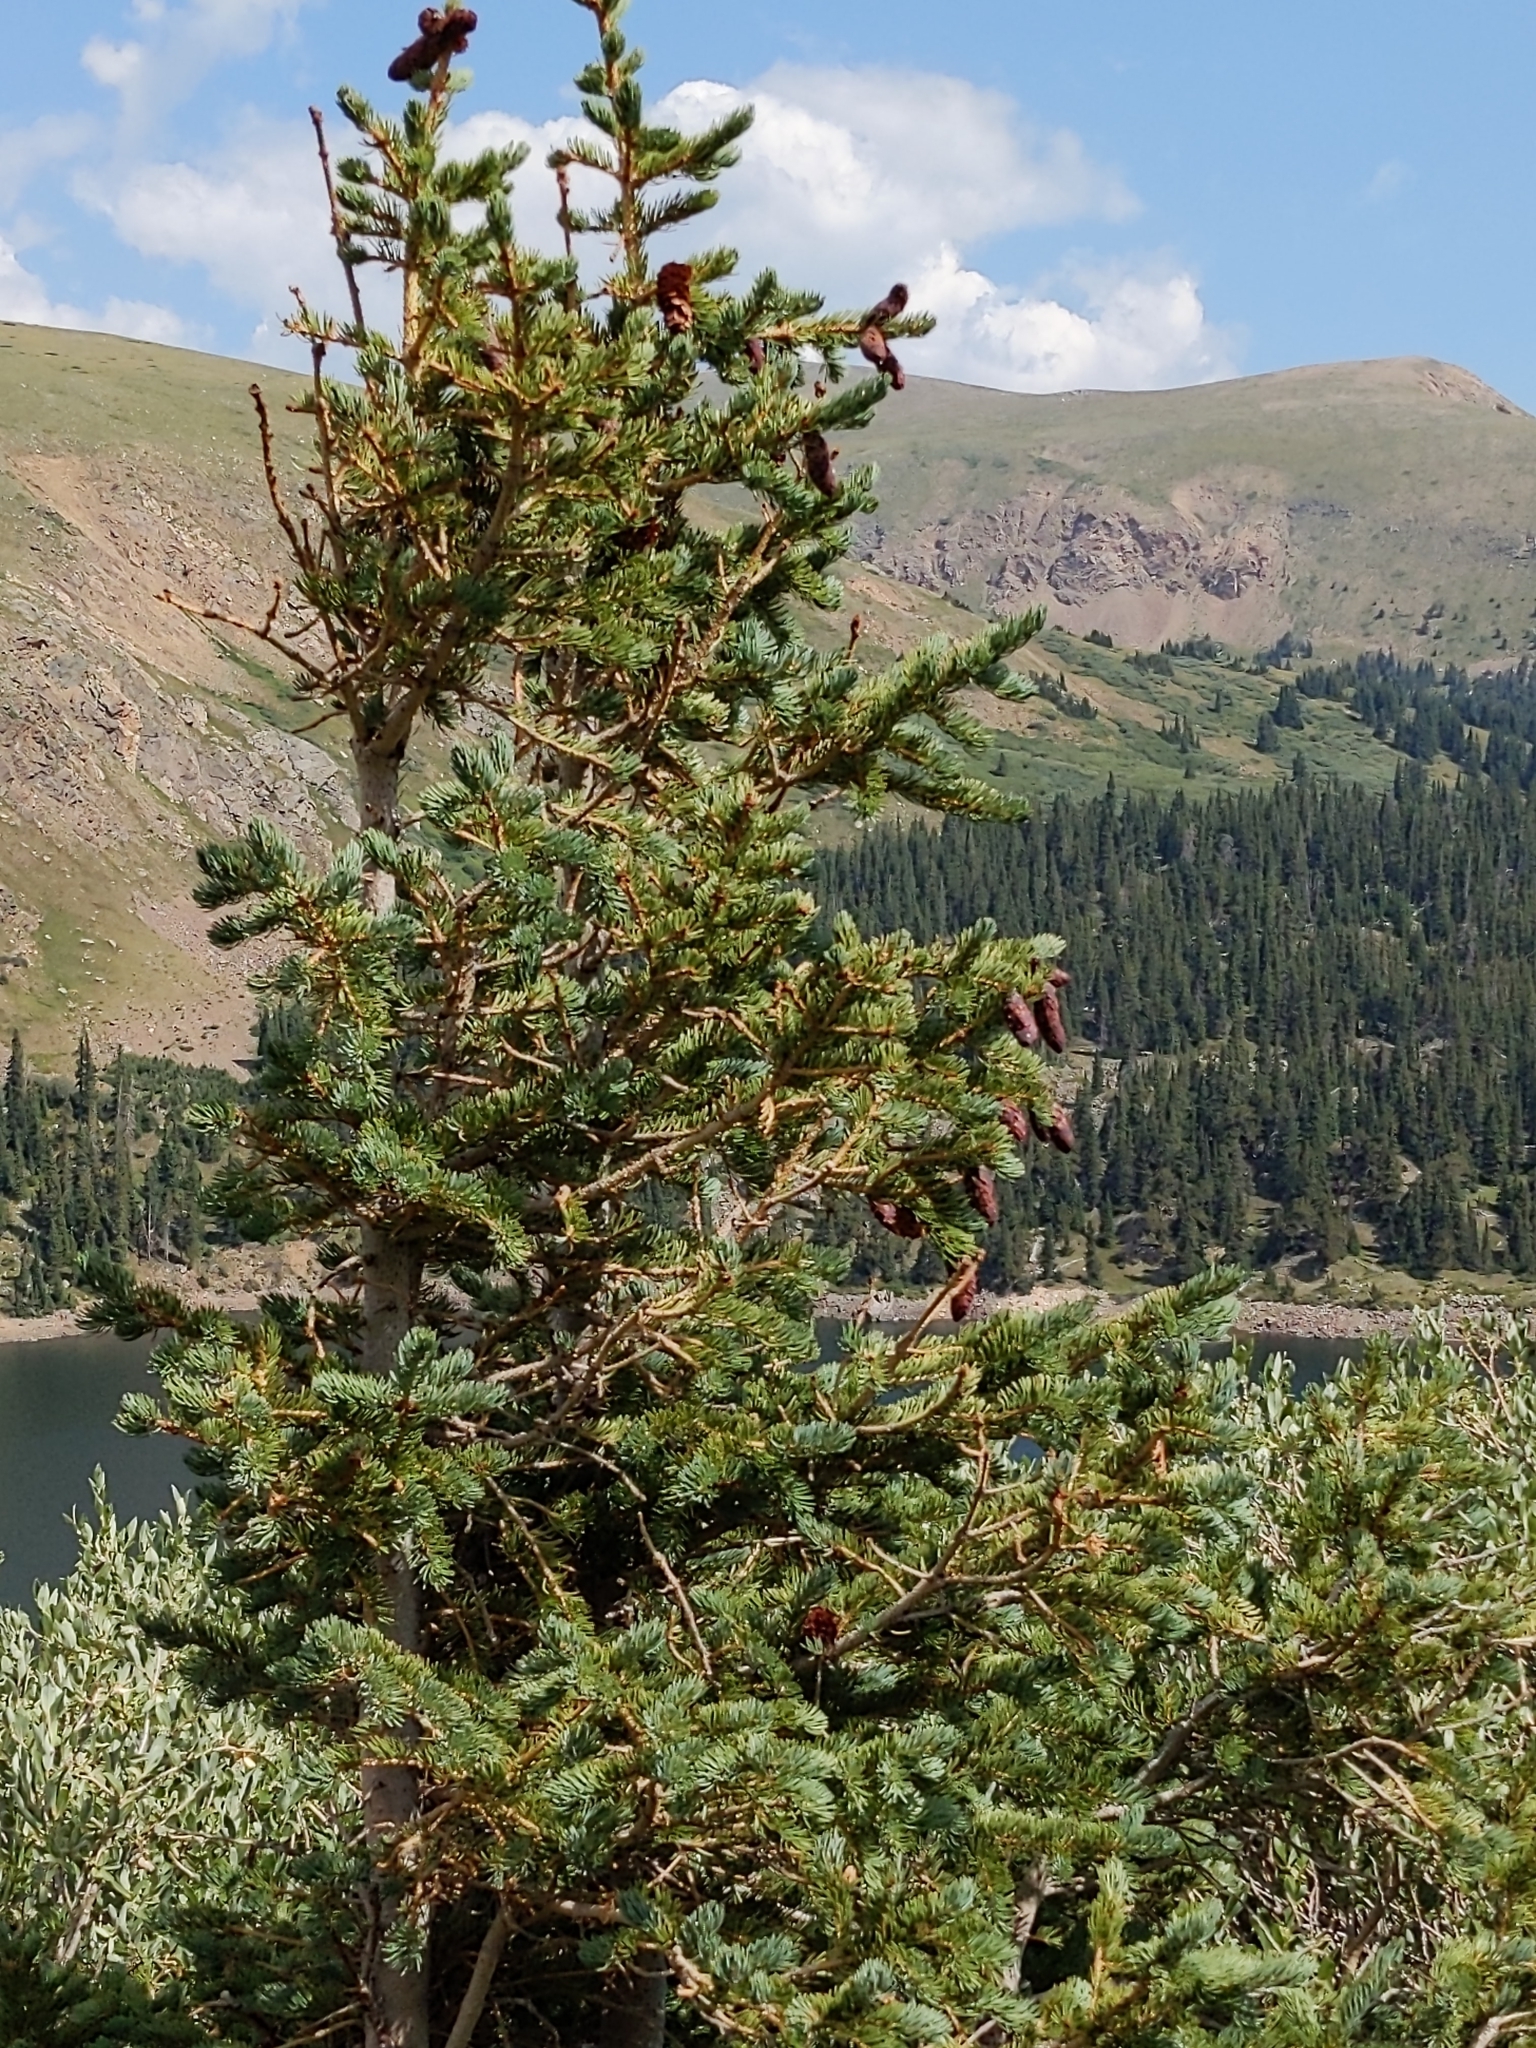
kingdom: Plantae
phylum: Tracheophyta
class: Pinopsida
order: Pinales
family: Pinaceae
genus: Picea
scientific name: Picea engelmannii
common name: Engelmann spruce
